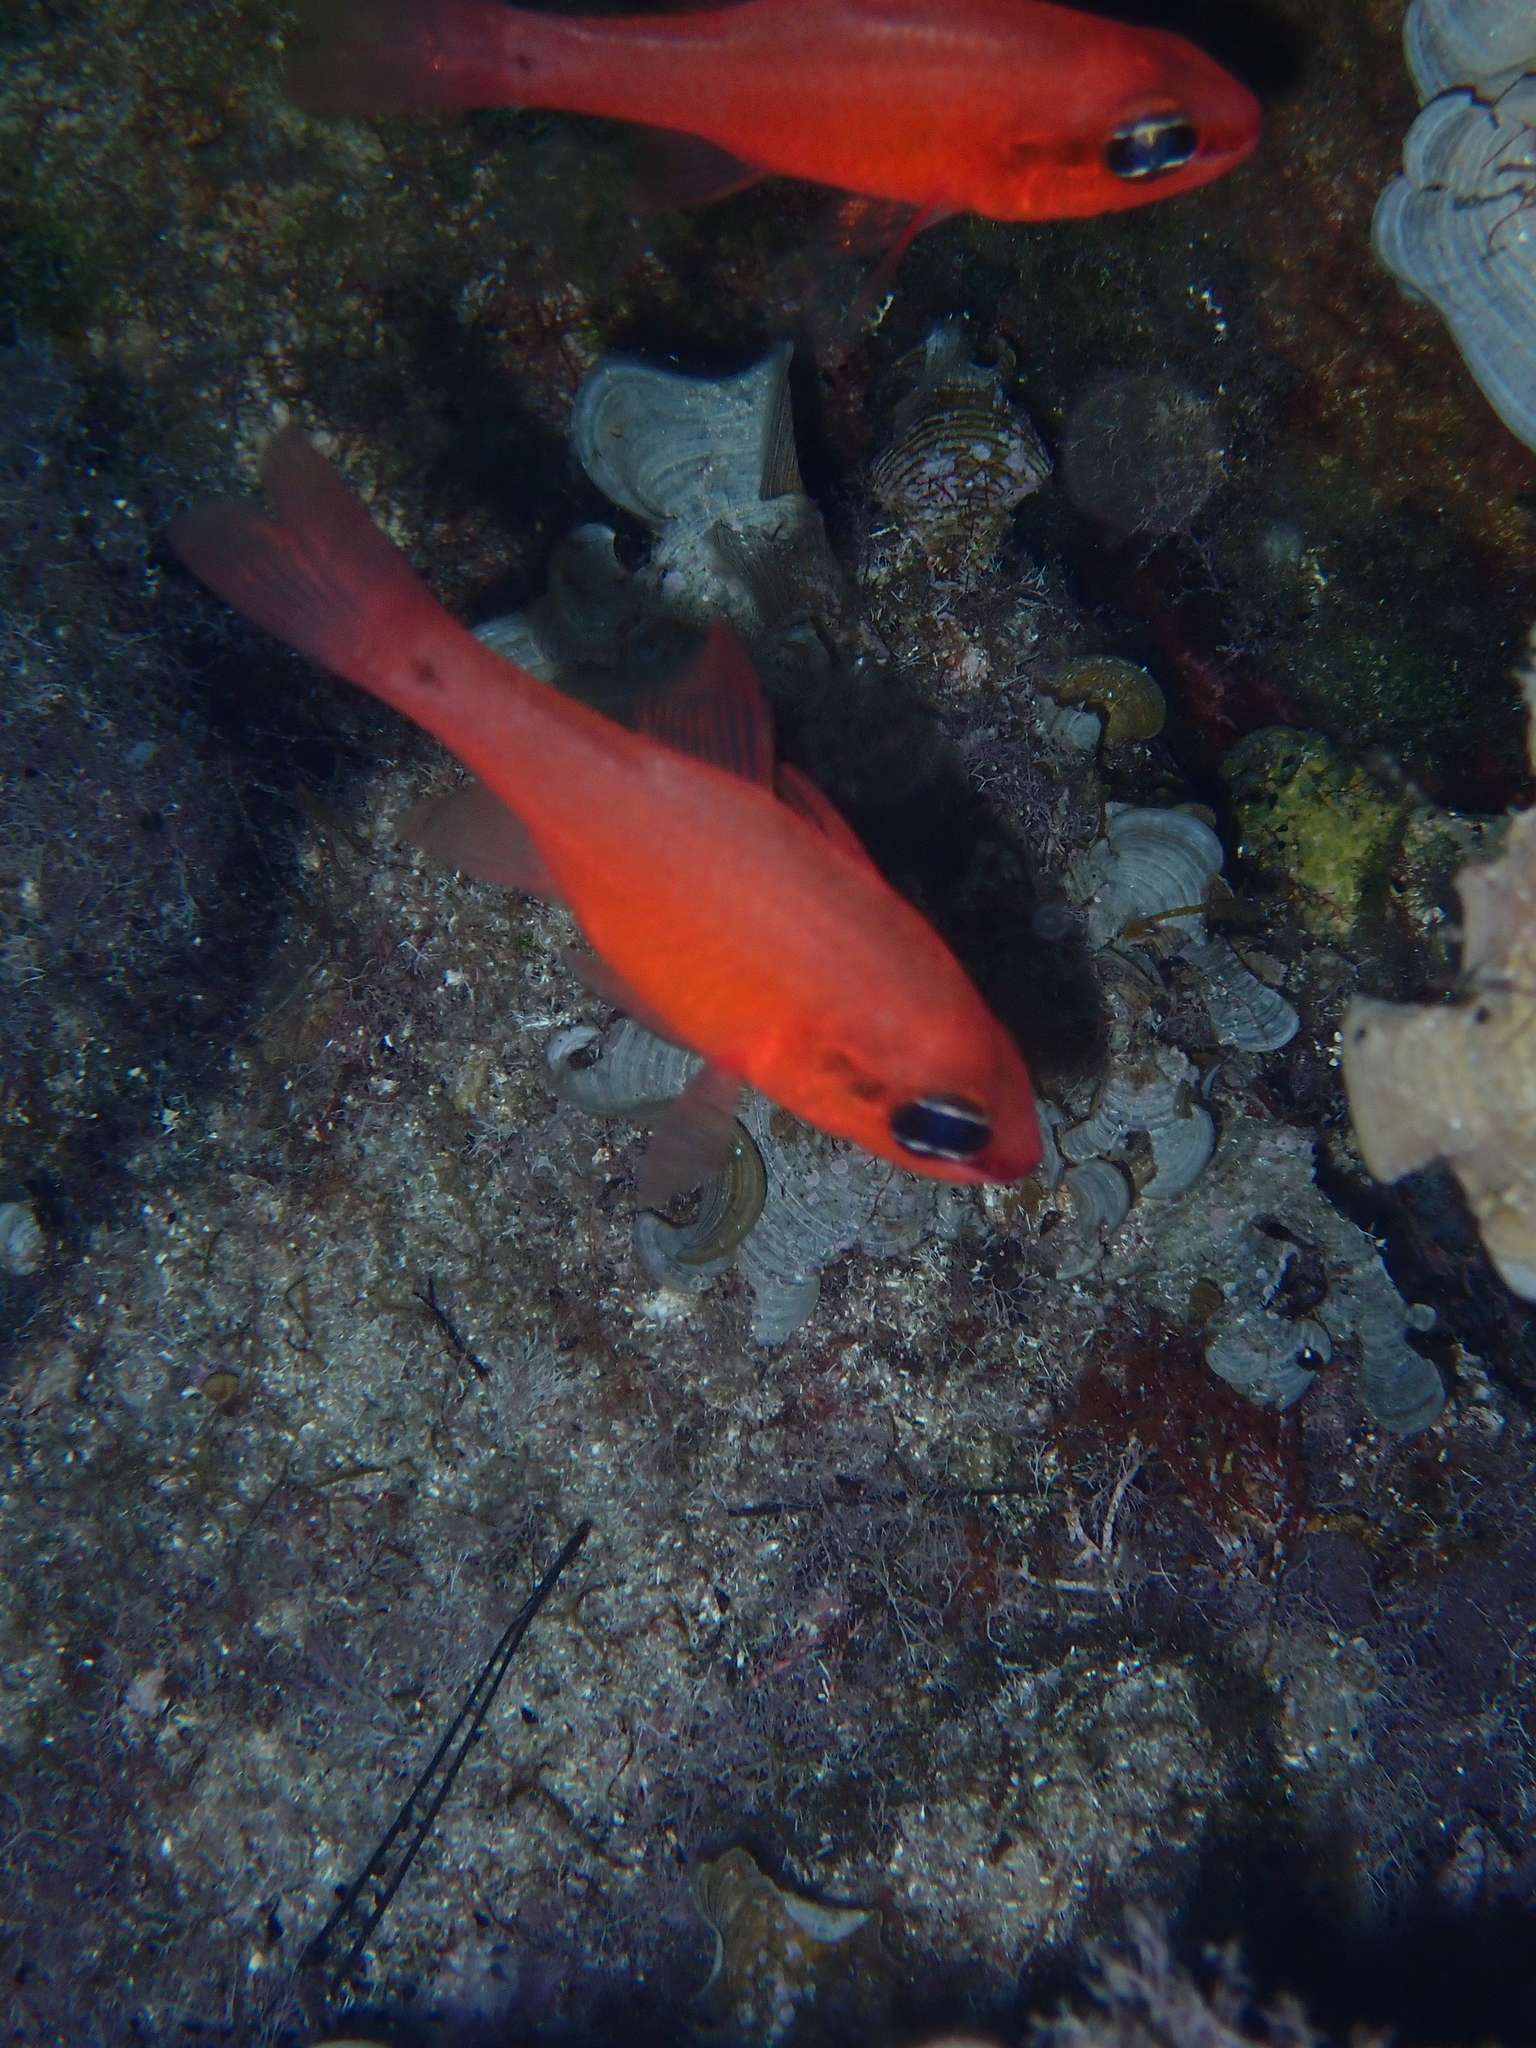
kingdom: Animalia
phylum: Chordata
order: Perciformes
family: Apogonidae
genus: Apogon
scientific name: Apogon imberbis
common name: Cardinal fish
